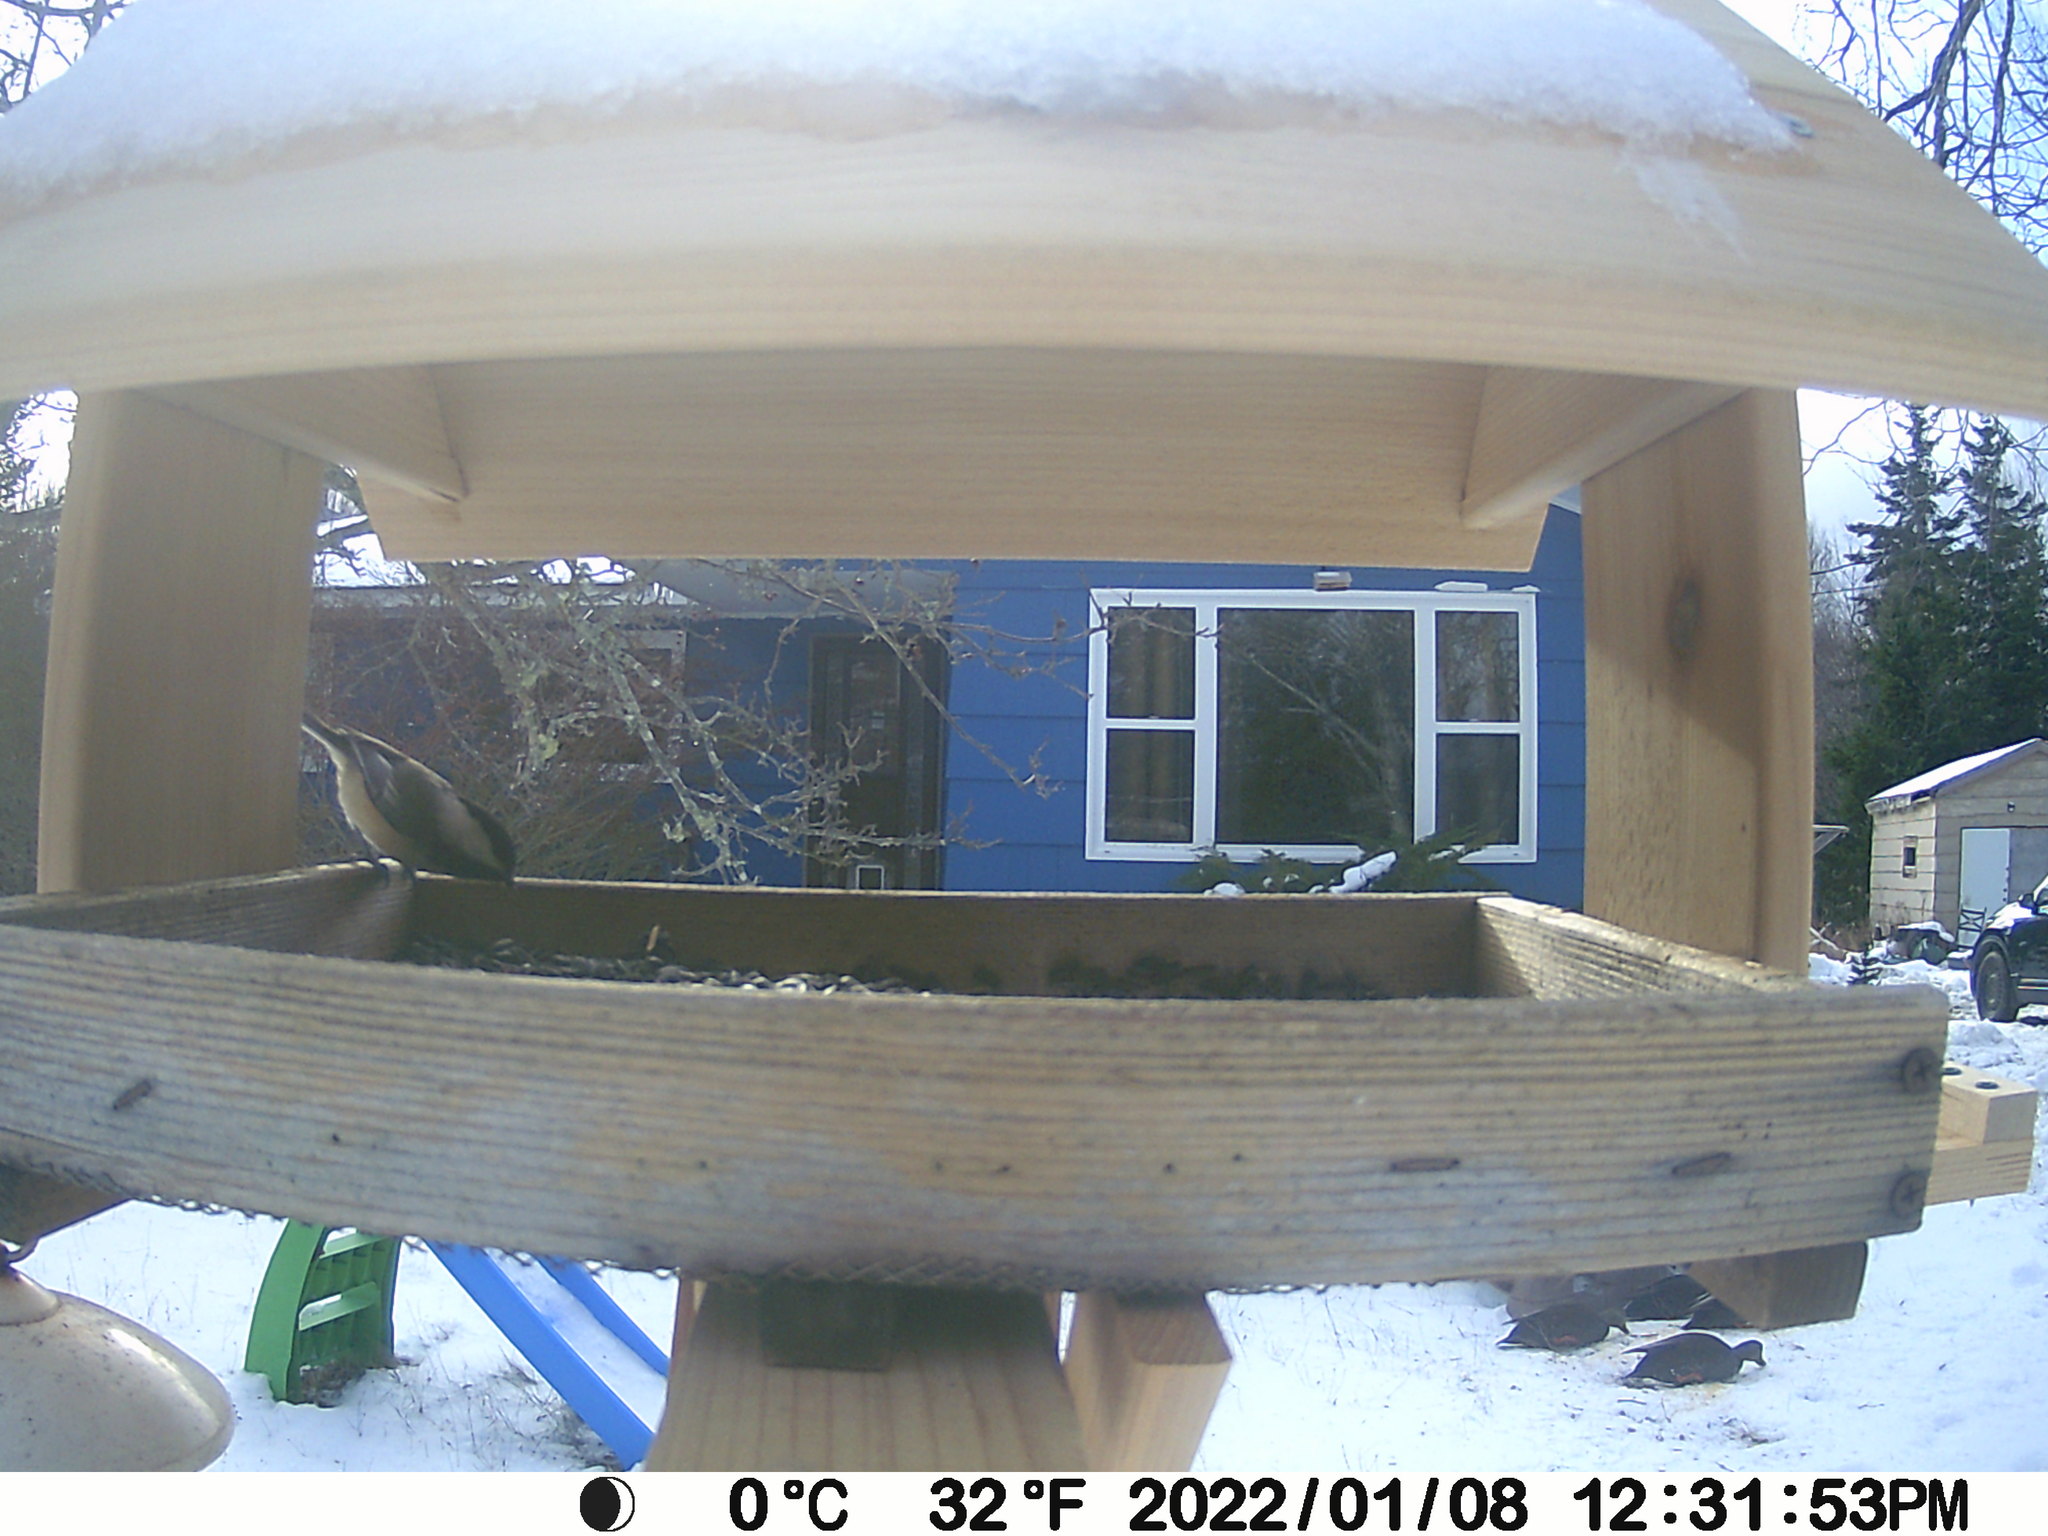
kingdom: Animalia
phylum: Chordata
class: Aves
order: Anseriformes
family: Anatidae
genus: Anas
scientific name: Anas rubripes
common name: American black duck
